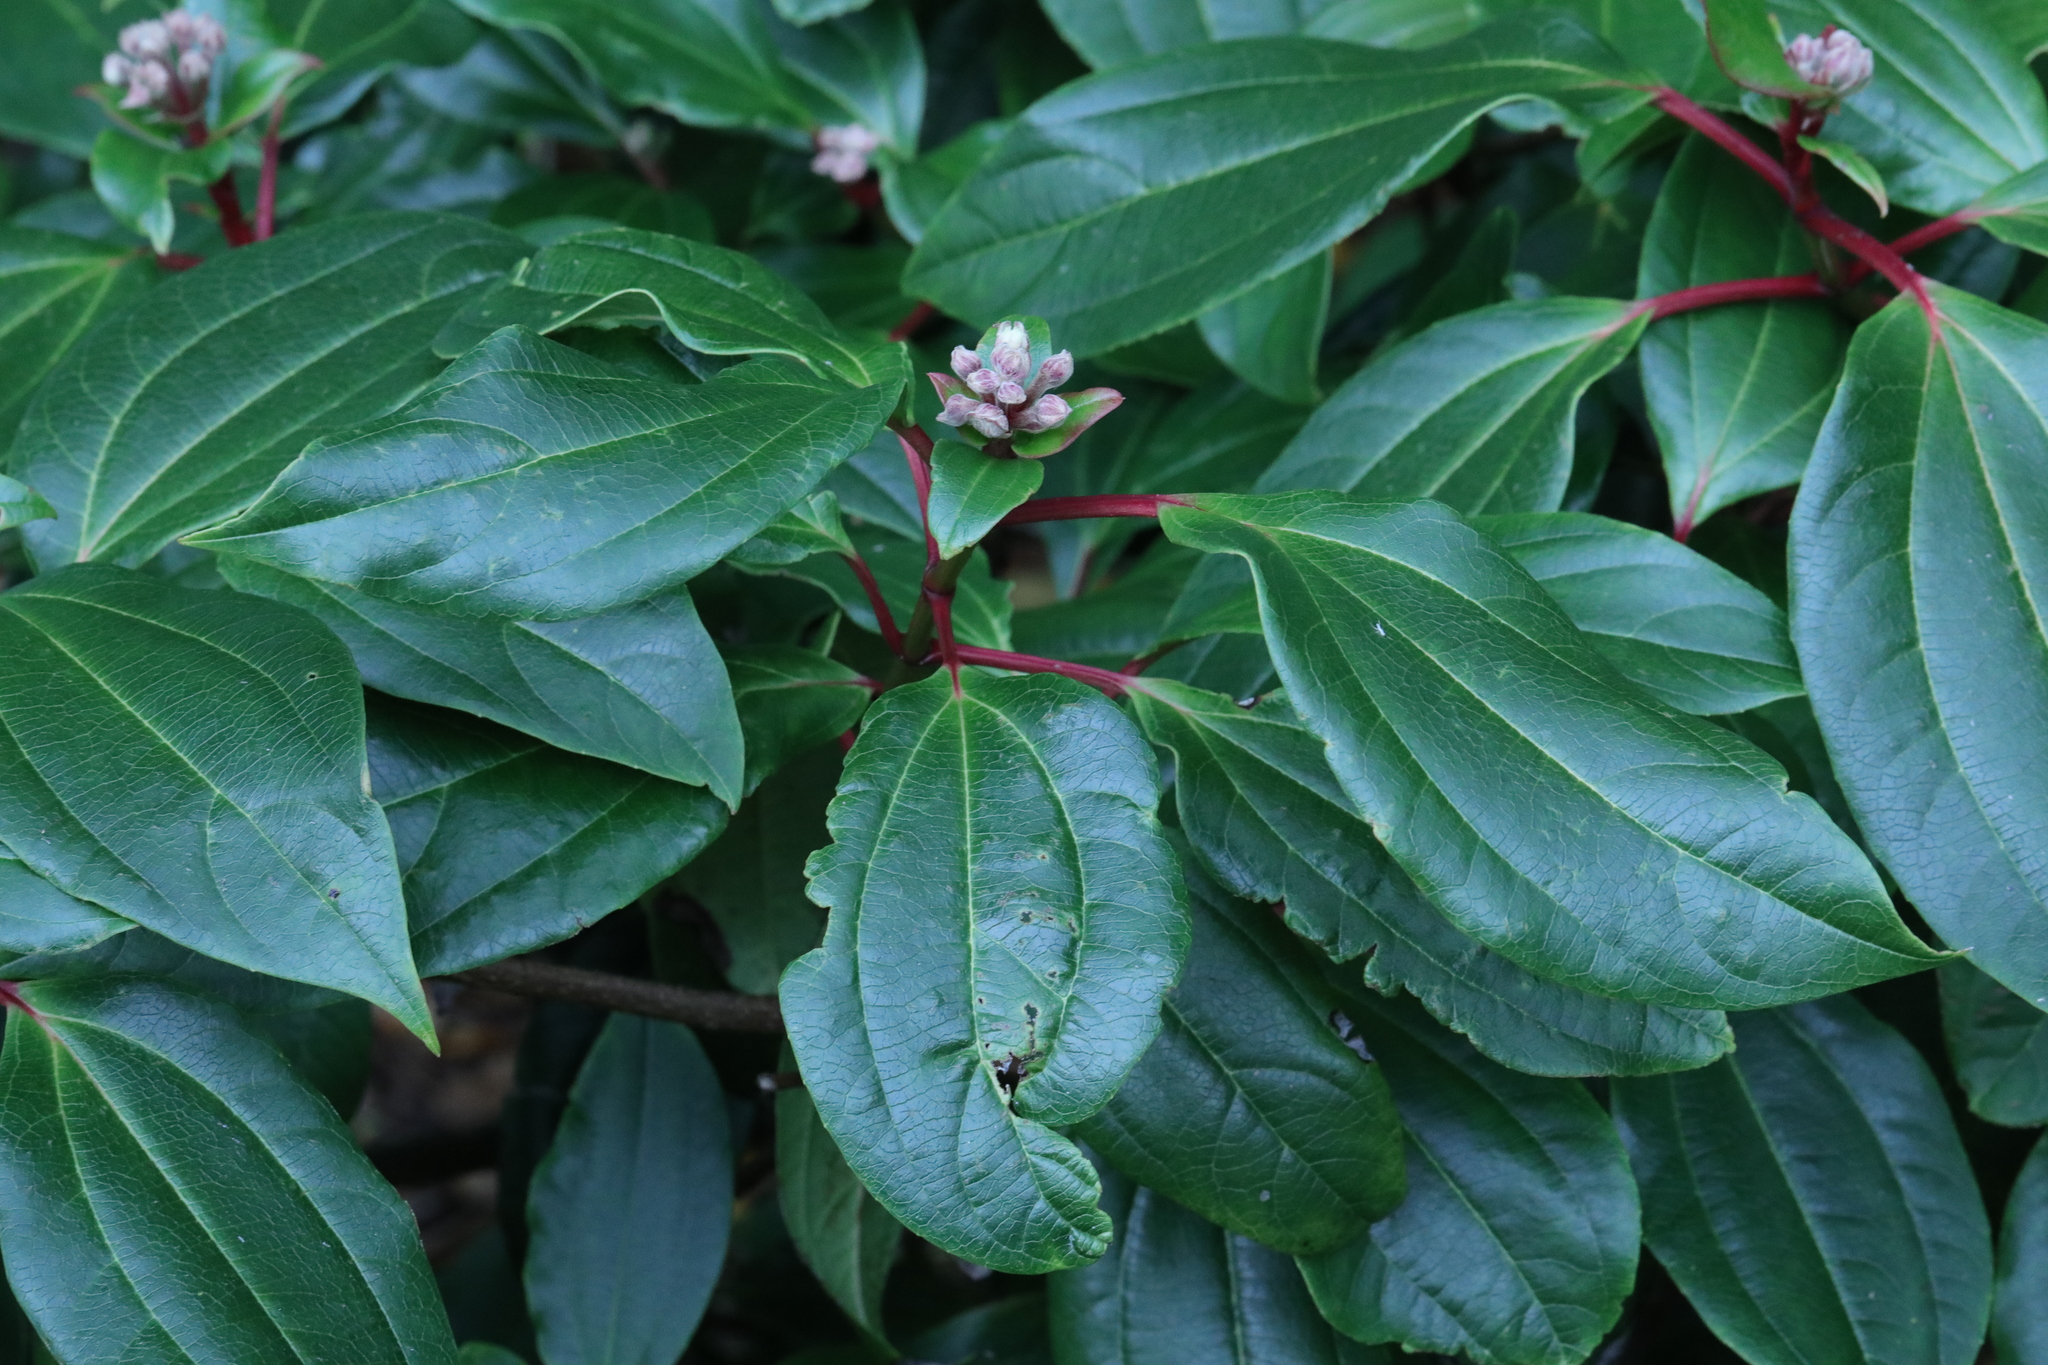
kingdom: Plantae
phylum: Tracheophyta
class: Magnoliopsida
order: Dipsacales
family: Viburnaceae
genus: Viburnum
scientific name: Viburnum davidi
